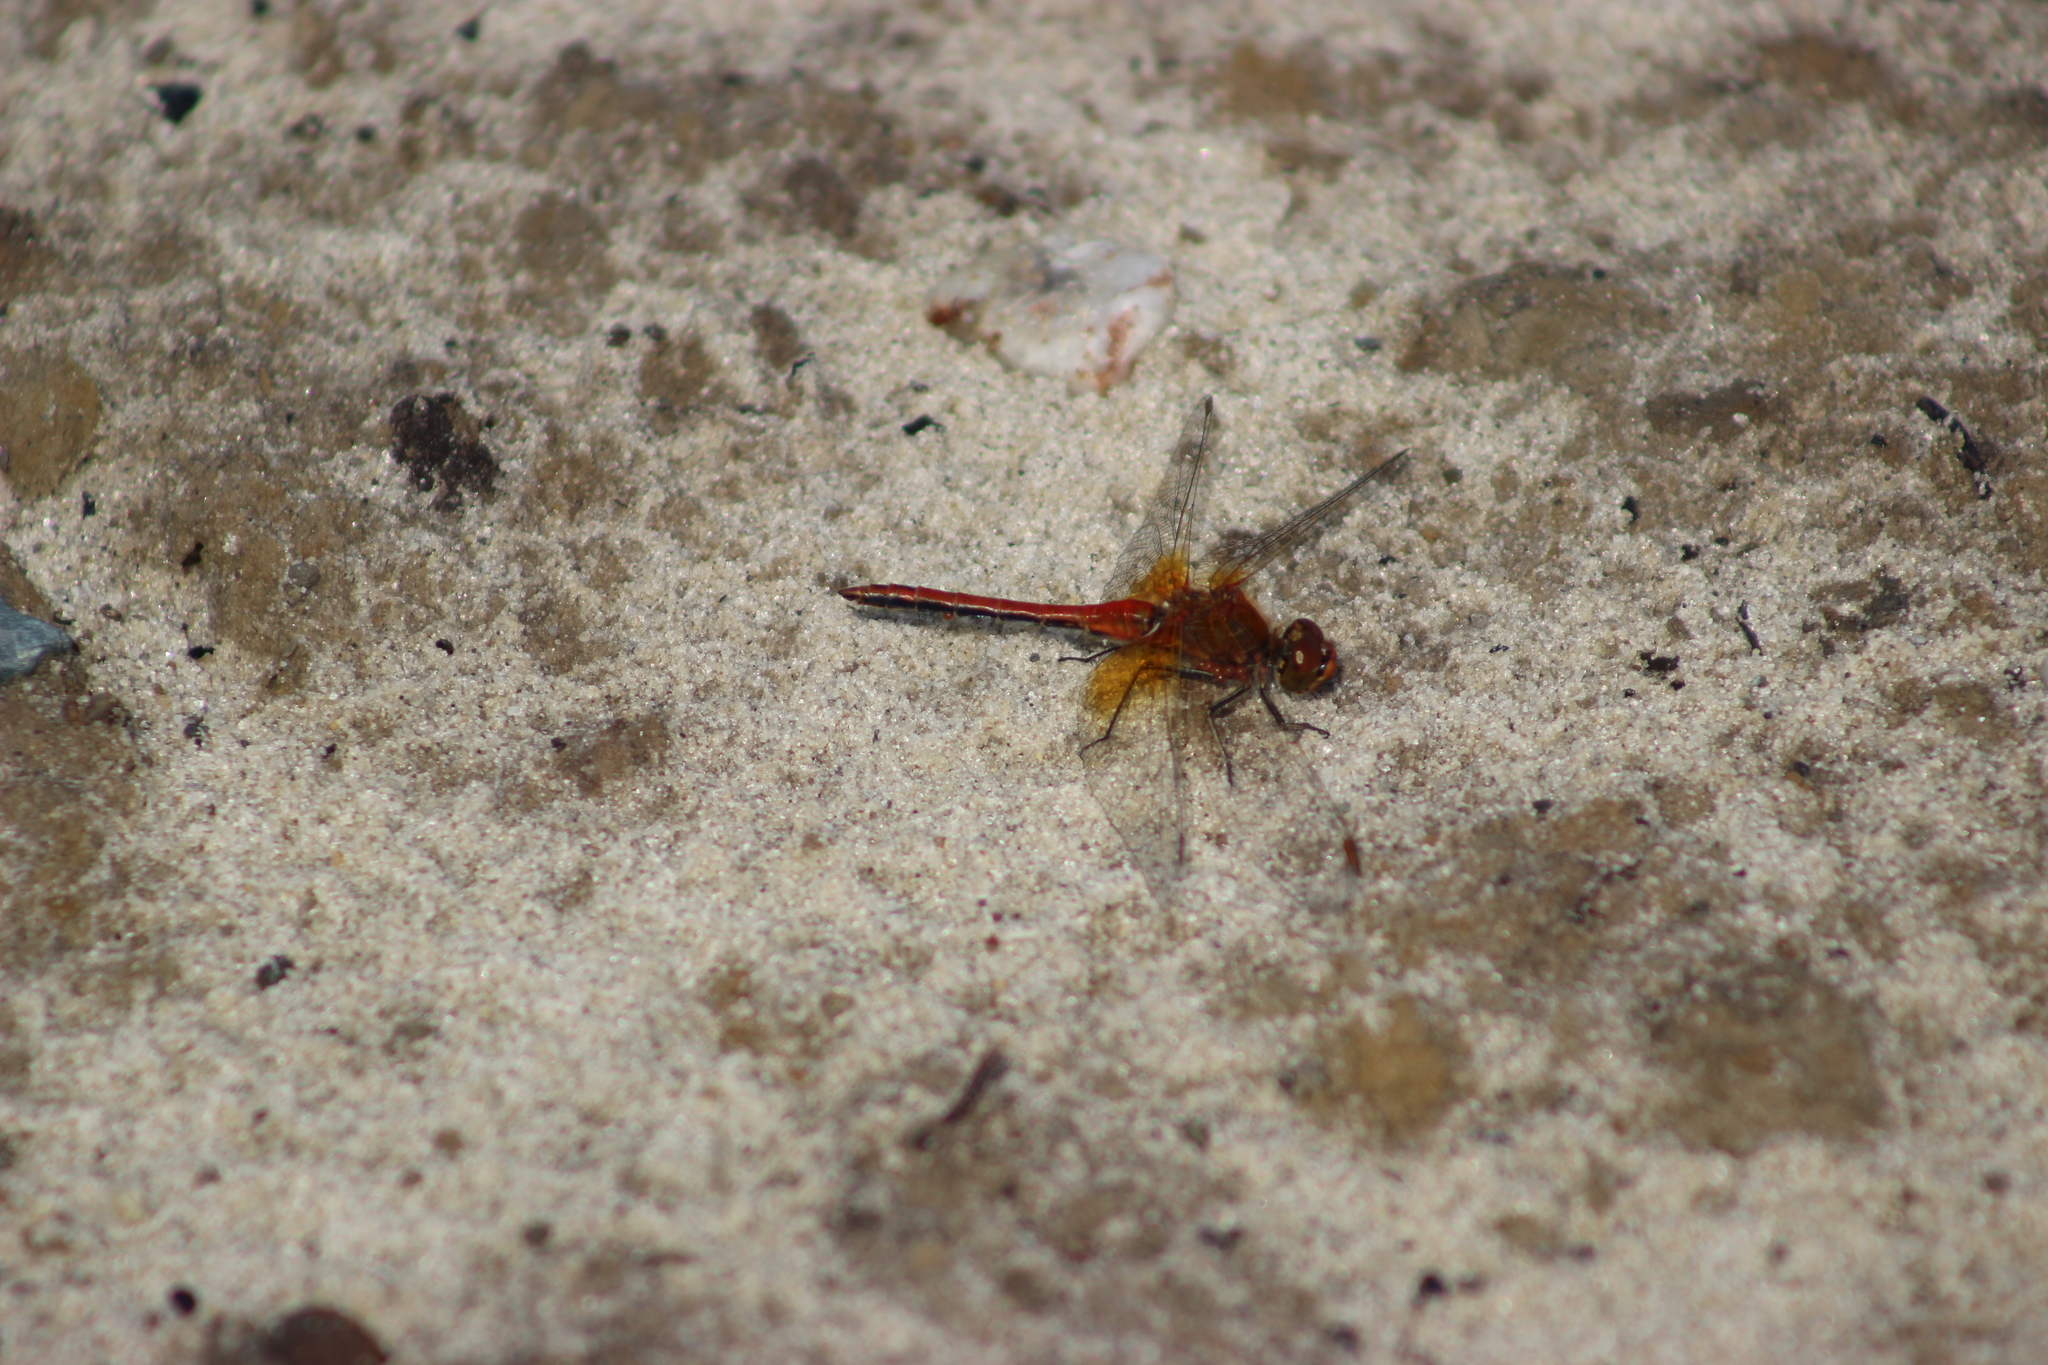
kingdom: Animalia
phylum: Arthropoda
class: Insecta
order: Odonata
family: Libellulidae
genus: Sympetrum
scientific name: Sympetrum flaveolum
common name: Yellow-winged darter
